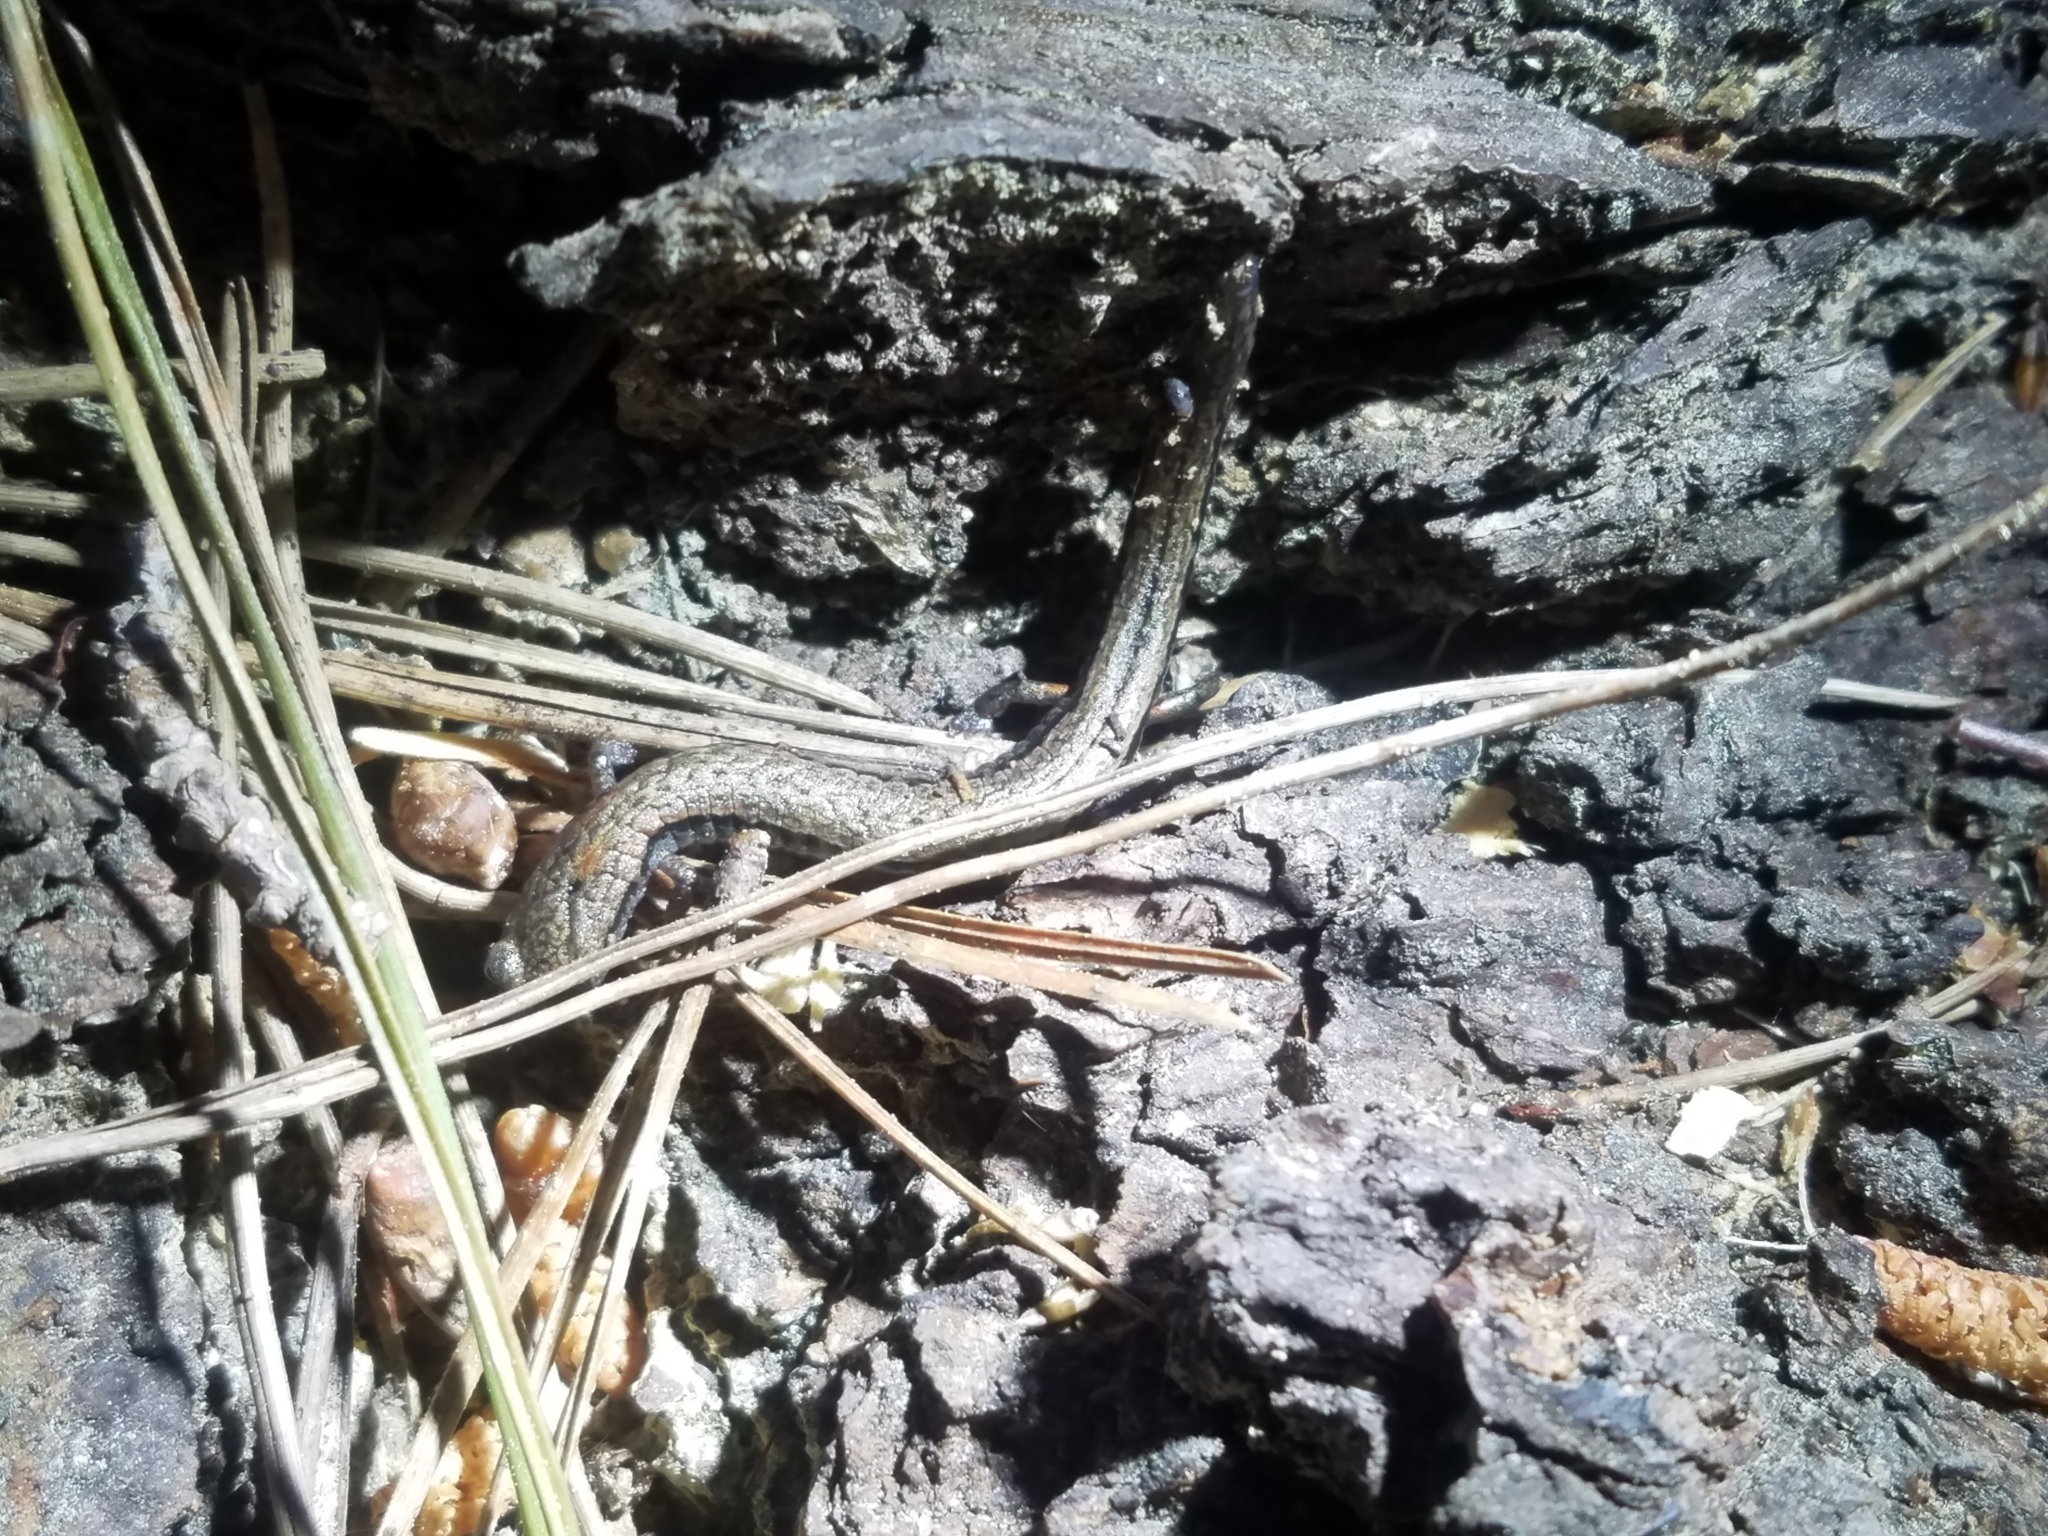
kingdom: Animalia
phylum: Chordata
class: Amphibia
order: Caudata
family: Plethodontidae
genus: Batrachoseps
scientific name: Batrachoseps attenuatus
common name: California slender salamander
